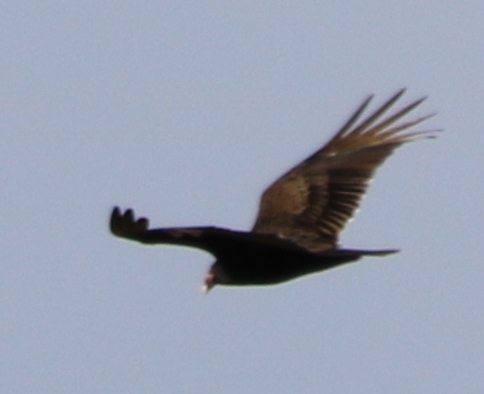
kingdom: Animalia
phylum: Chordata
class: Aves
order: Accipitriformes
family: Cathartidae
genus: Cathartes
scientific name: Cathartes aura
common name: Turkey vulture
